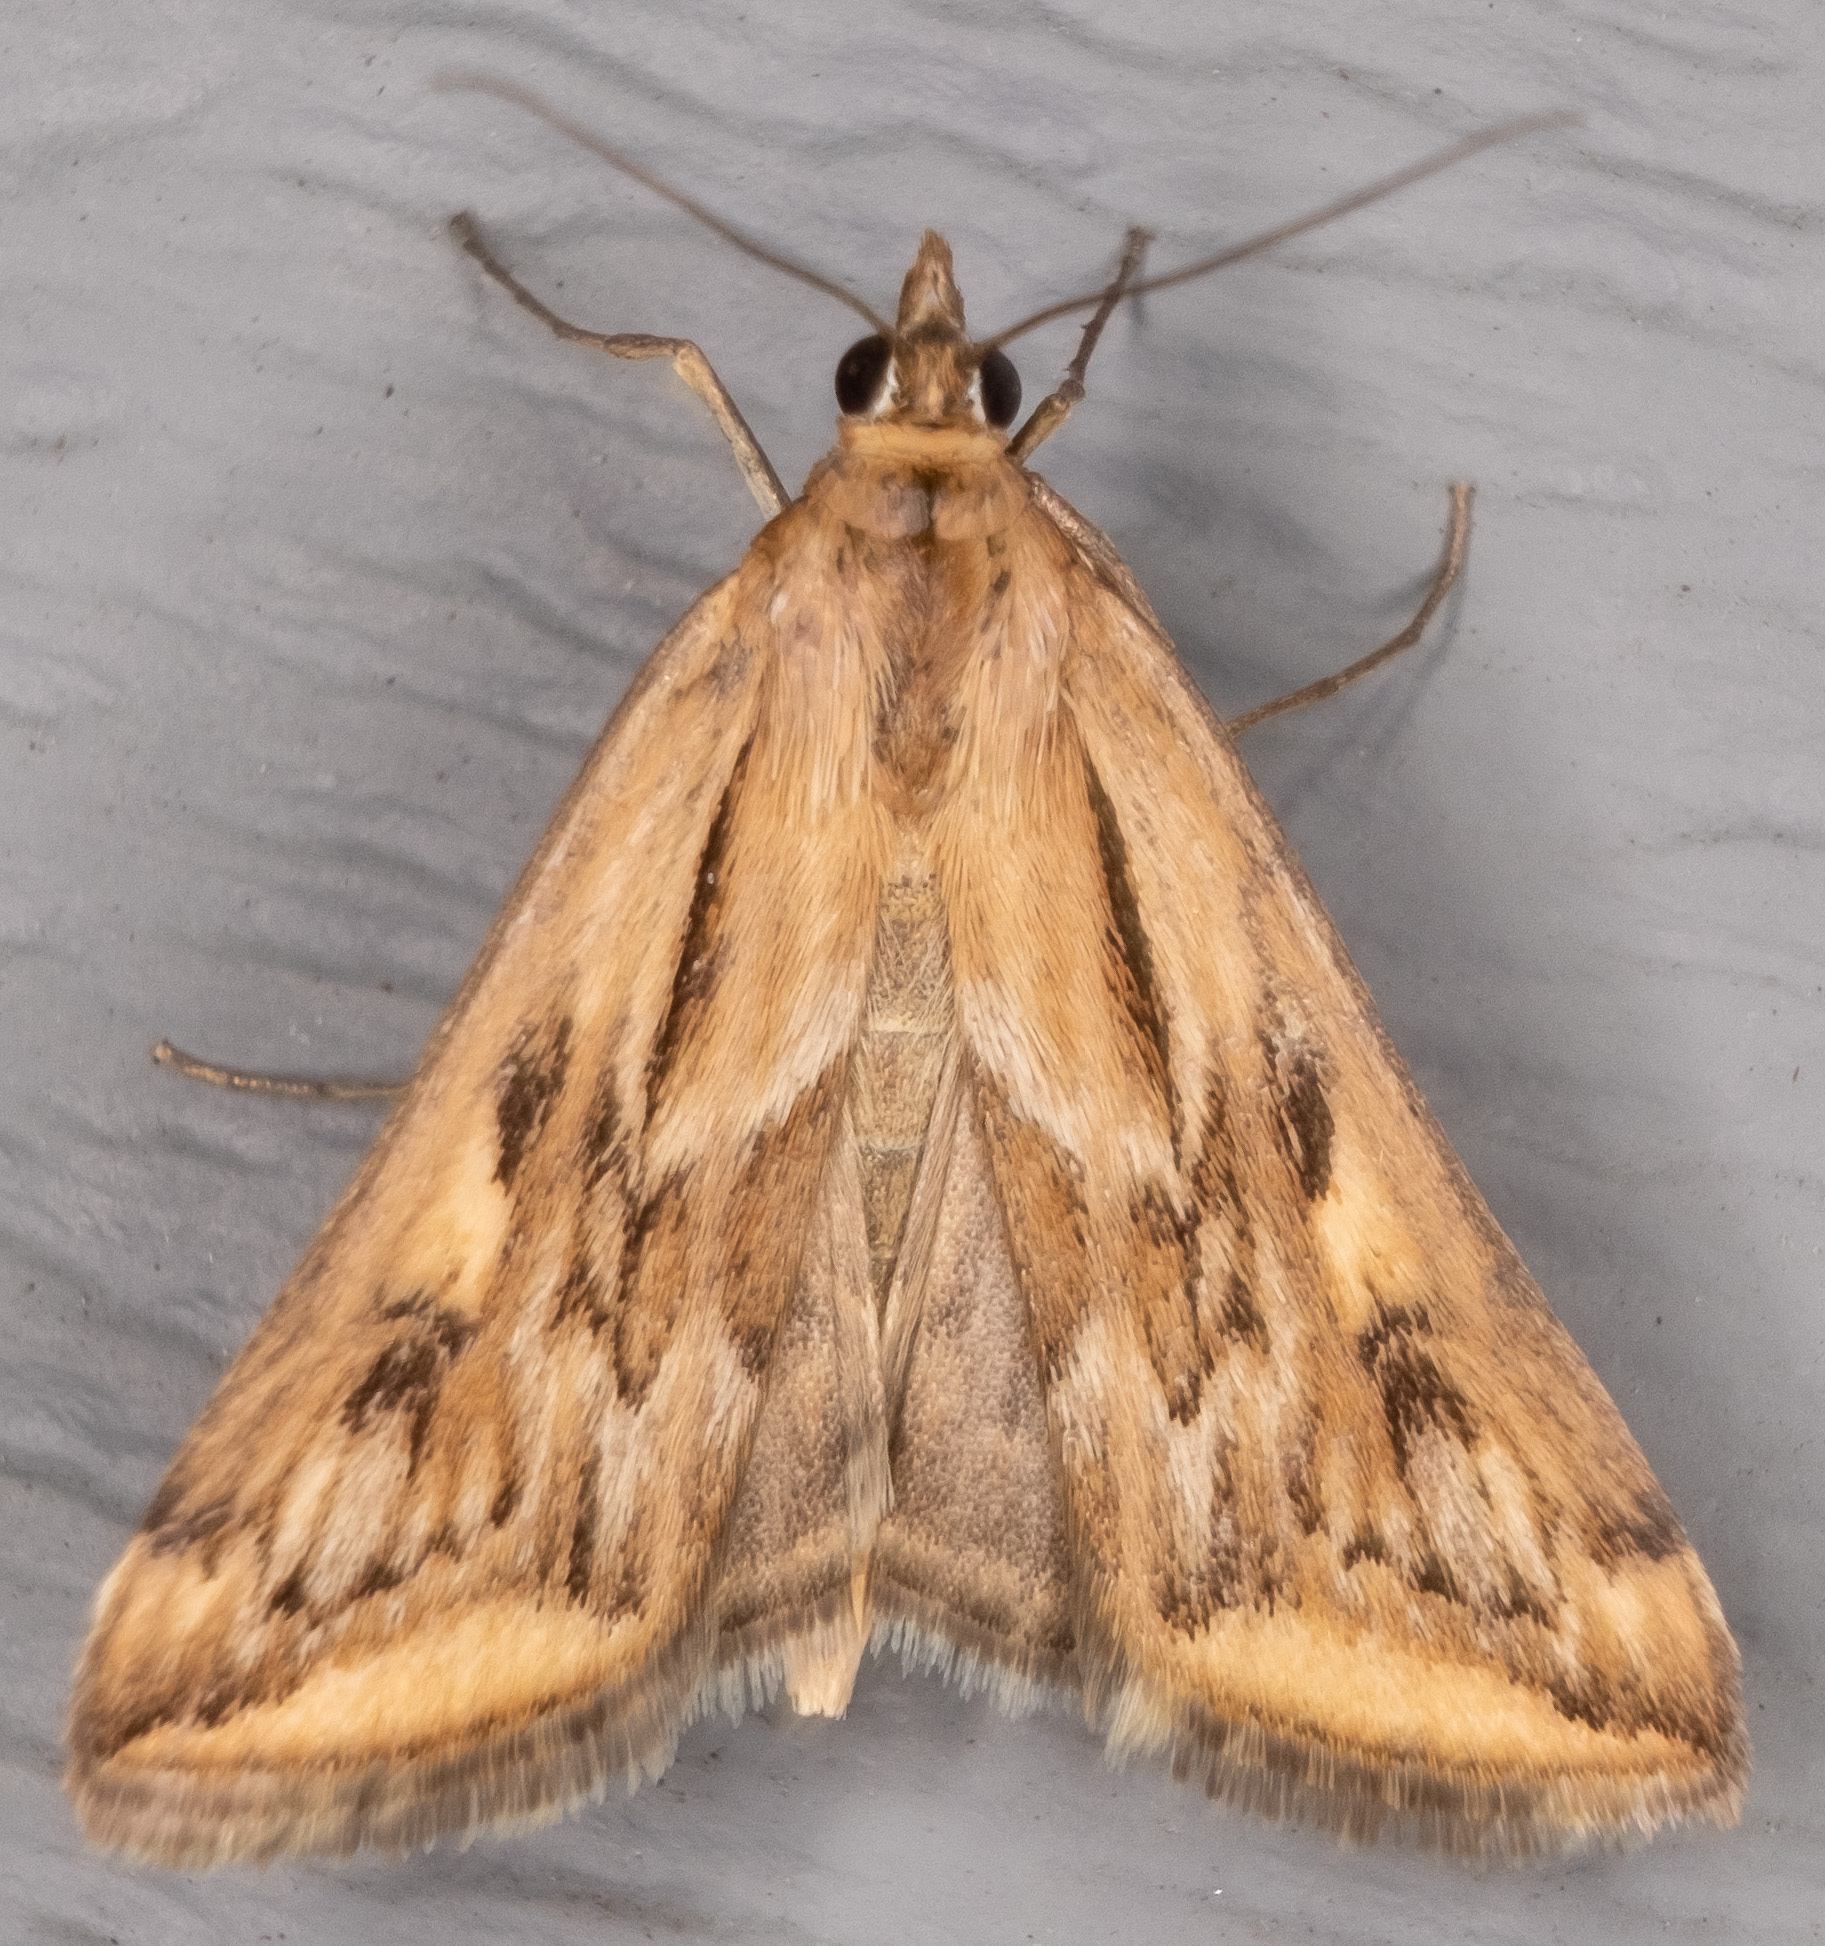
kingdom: Animalia
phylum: Arthropoda
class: Insecta
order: Lepidoptera
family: Crambidae
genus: Loxostege
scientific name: Loxostege cereralis
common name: Alfalfa webworm moth
